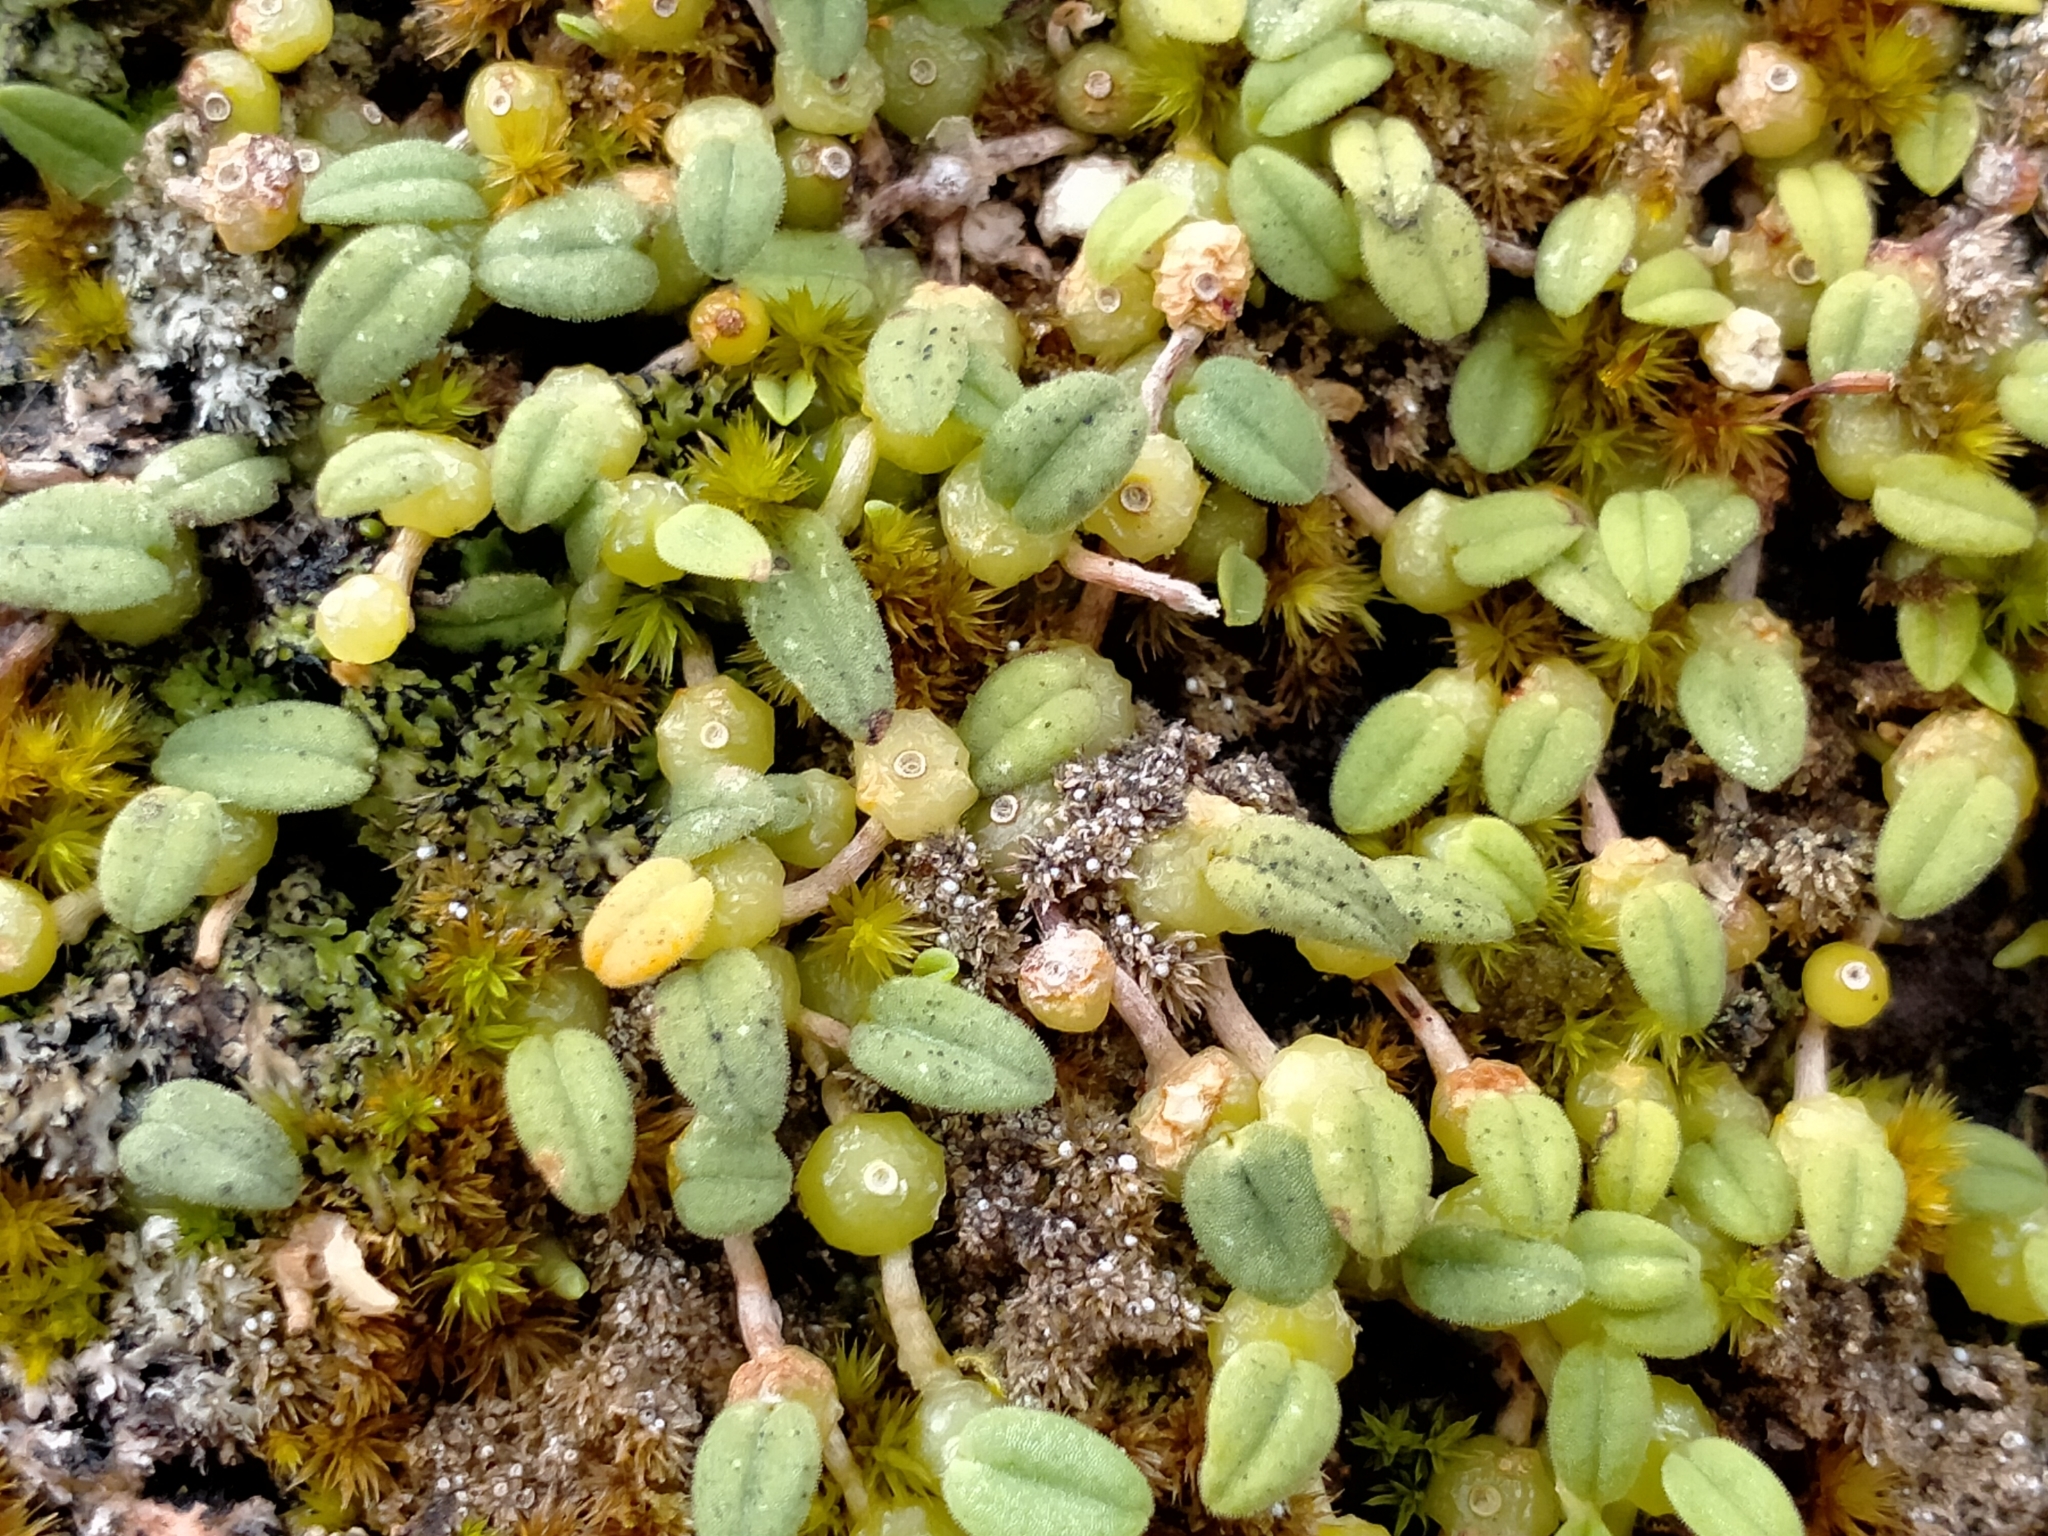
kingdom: Plantae
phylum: Tracheophyta
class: Liliopsida
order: Asparagales
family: Orchidaceae
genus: Bulbophyllum
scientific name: Bulbophyllum pygmaeum
